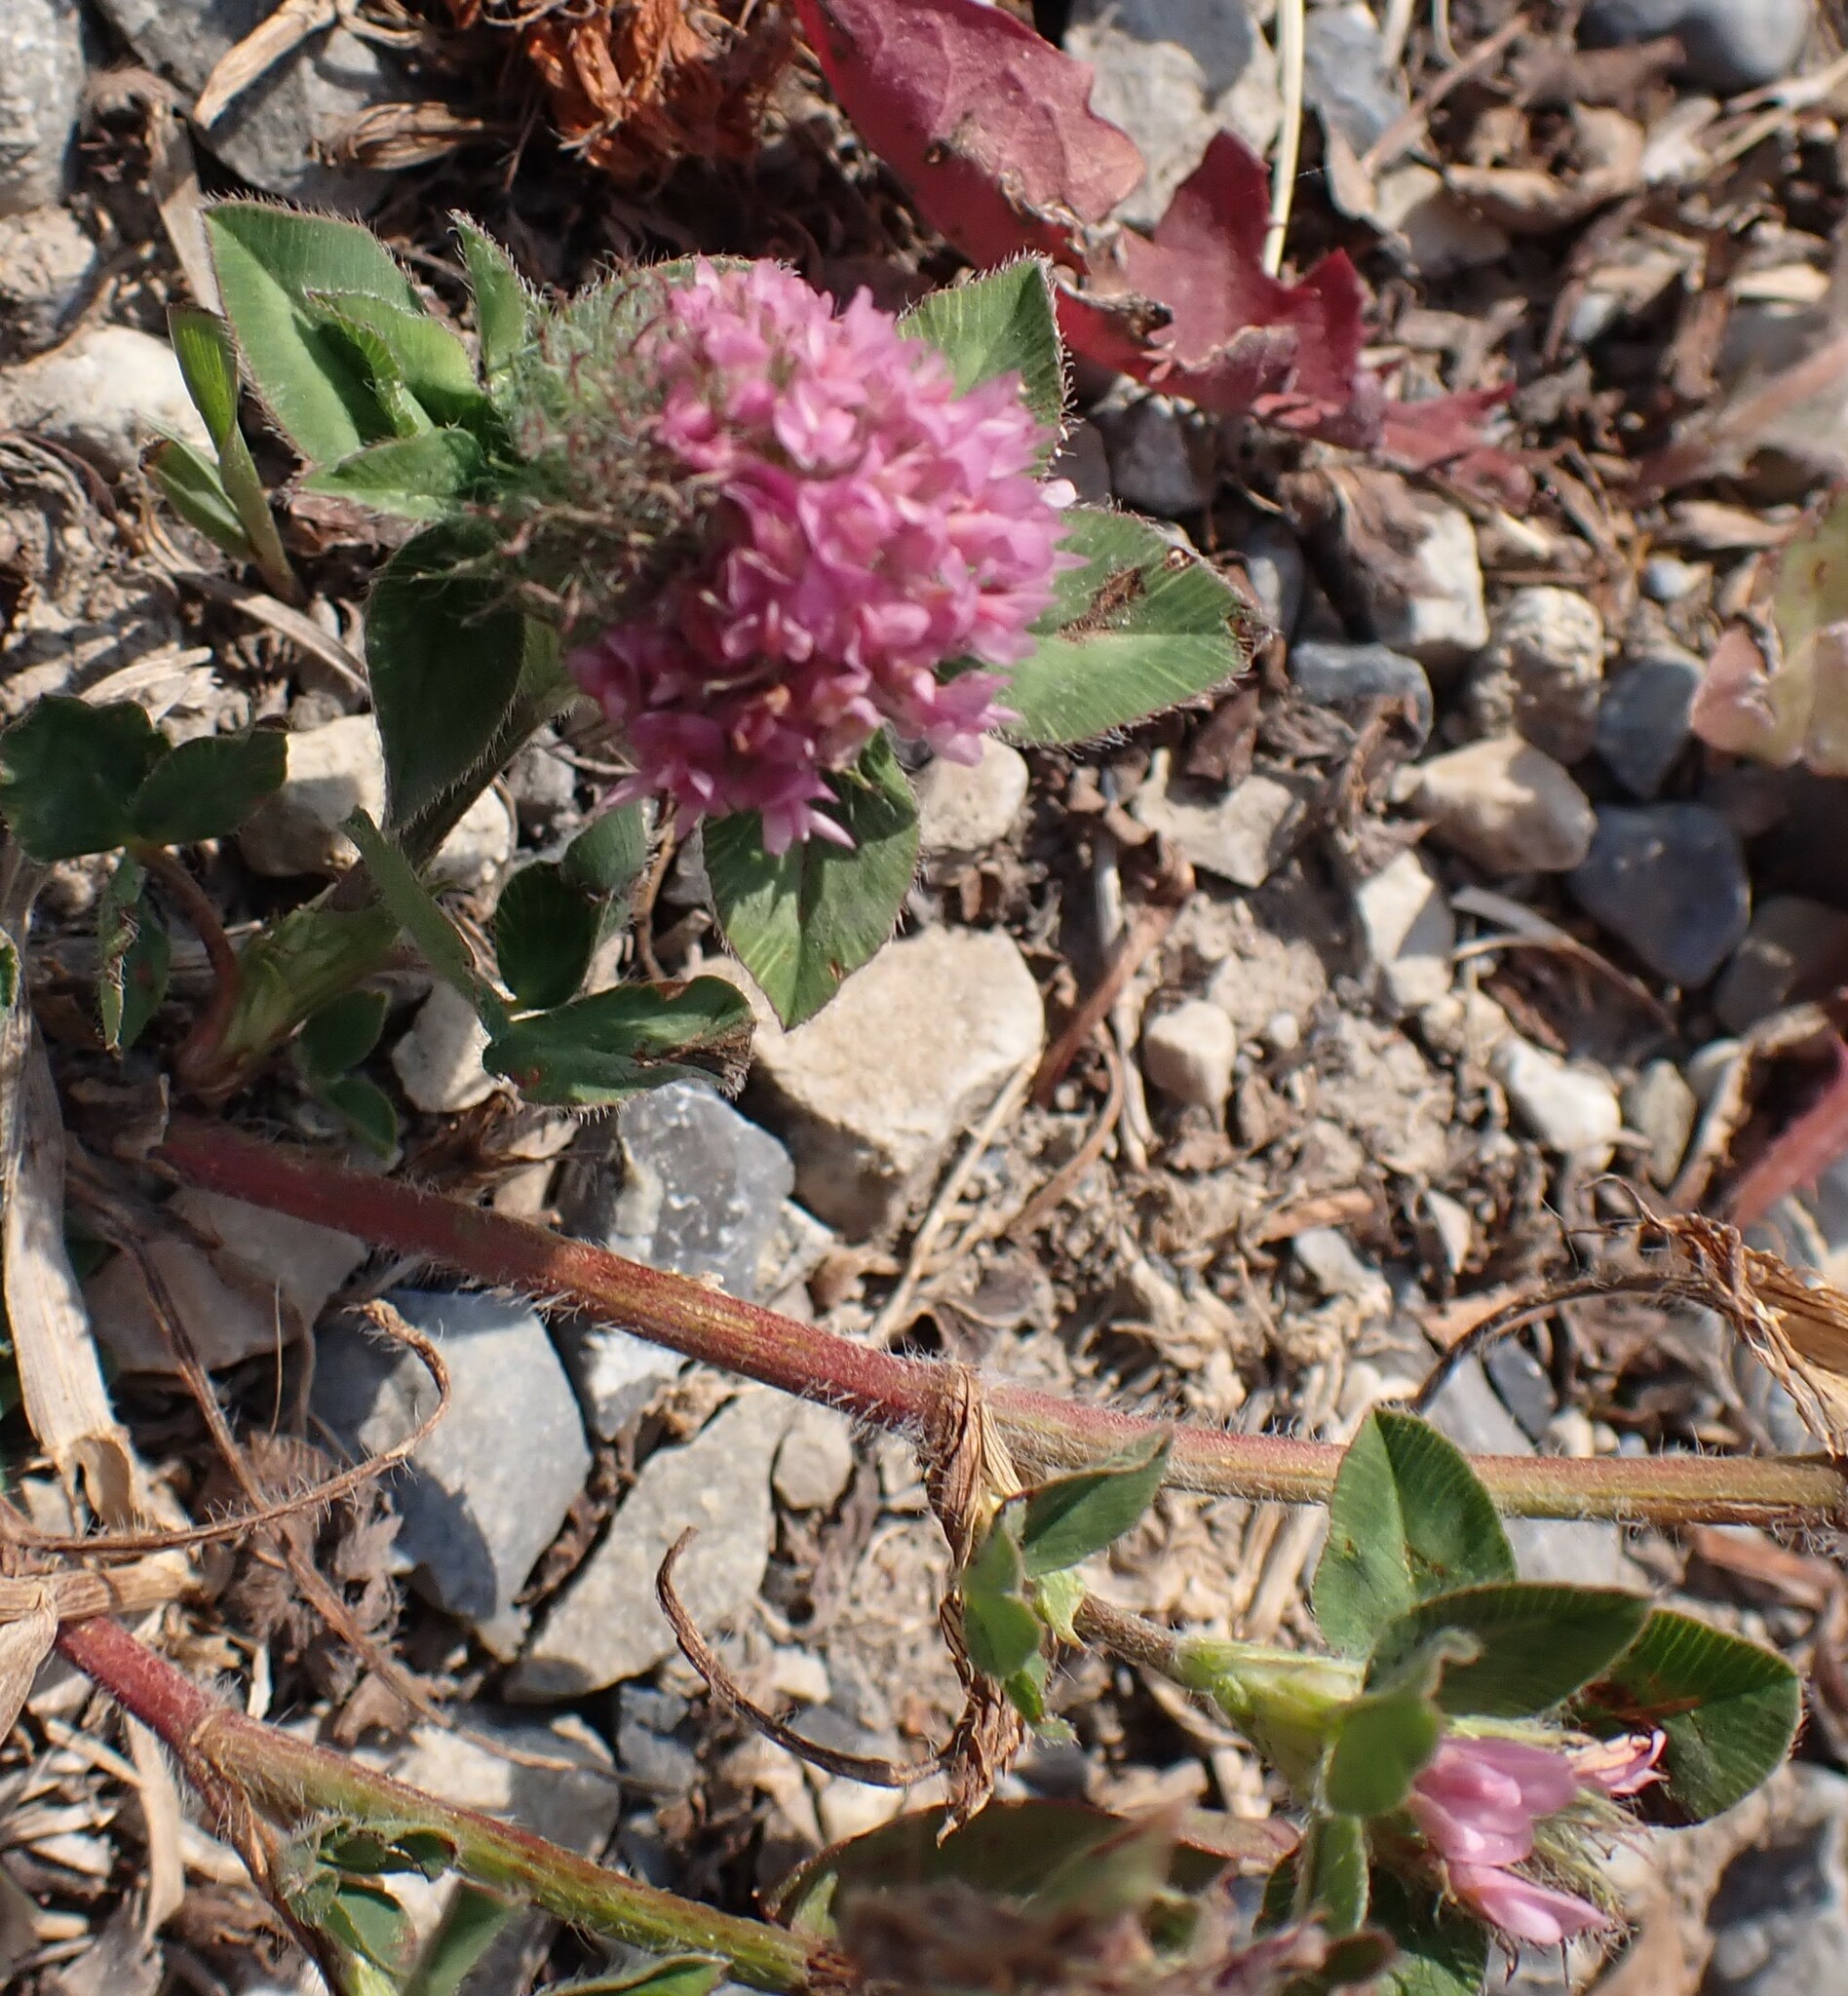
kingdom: Plantae
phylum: Tracheophyta
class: Magnoliopsida
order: Fabales
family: Fabaceae
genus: Trifolium
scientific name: Trifolium pratense
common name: Red clover
